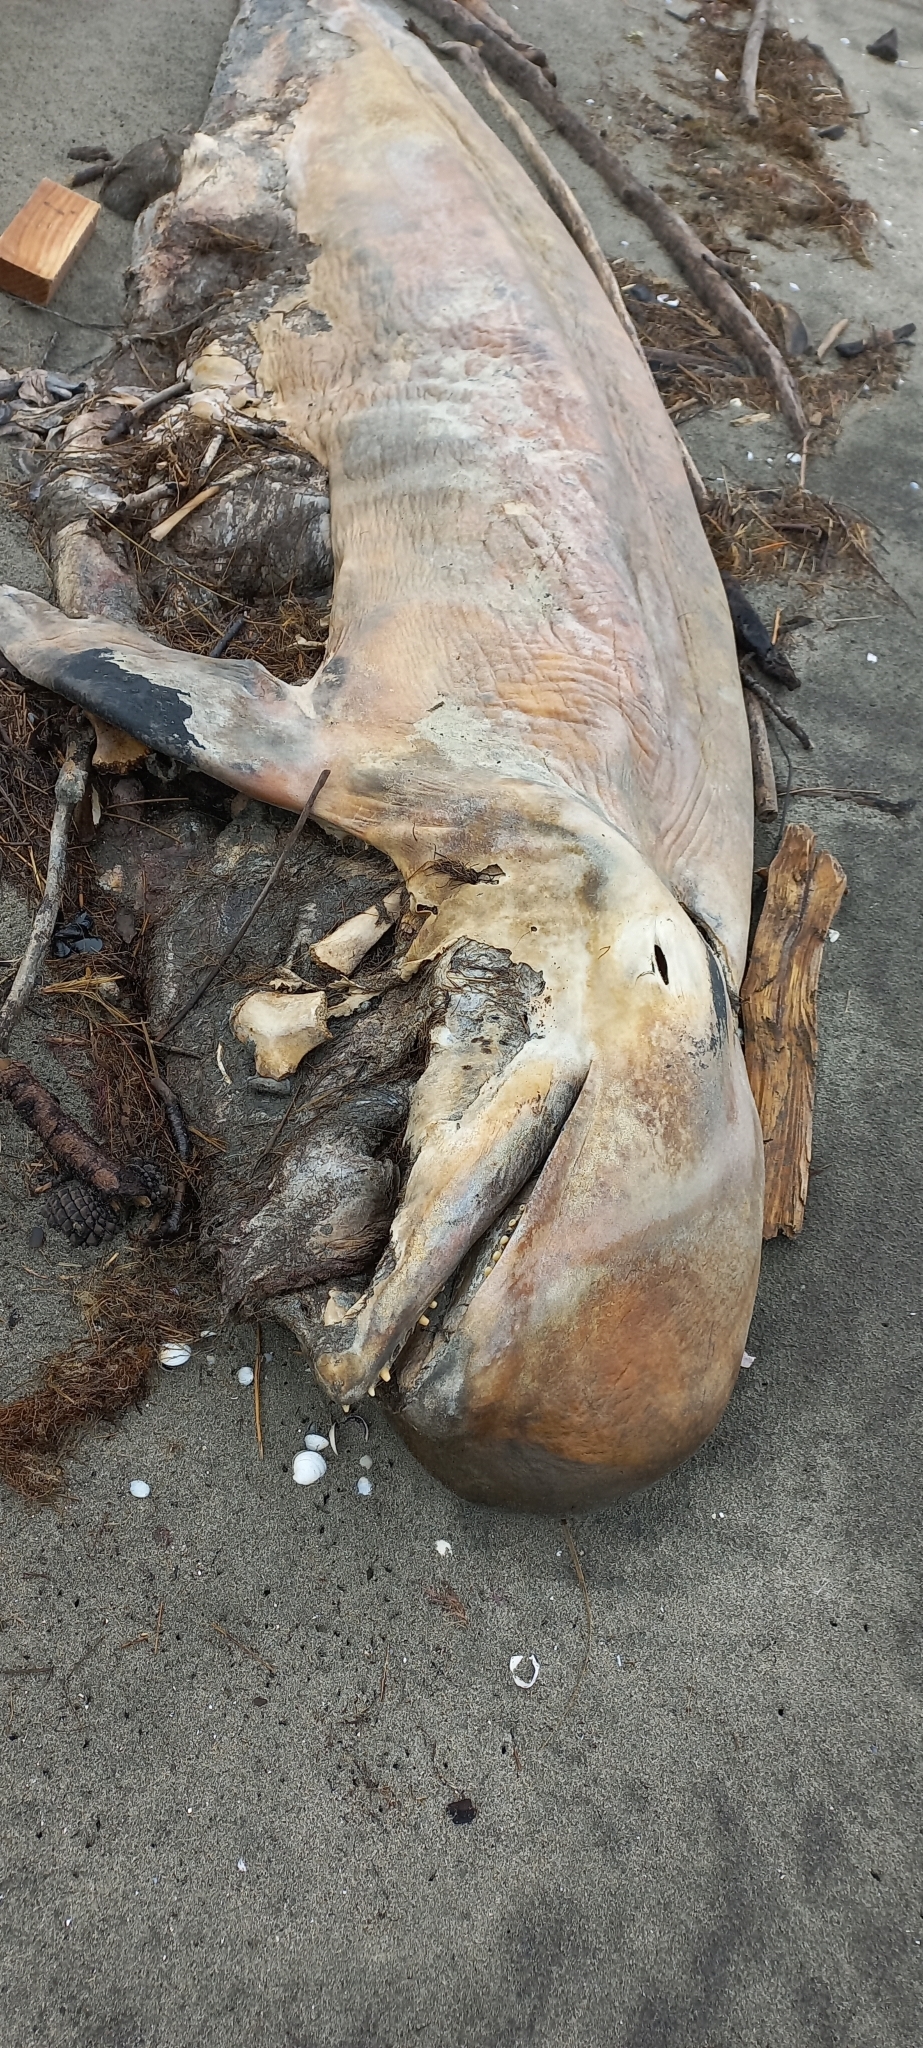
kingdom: Animalia
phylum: Chordata
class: Mammalia
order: Cetacea
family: Delphinidae
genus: Globicephala
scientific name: Globicephala melas
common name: Long-finned pilot whale
